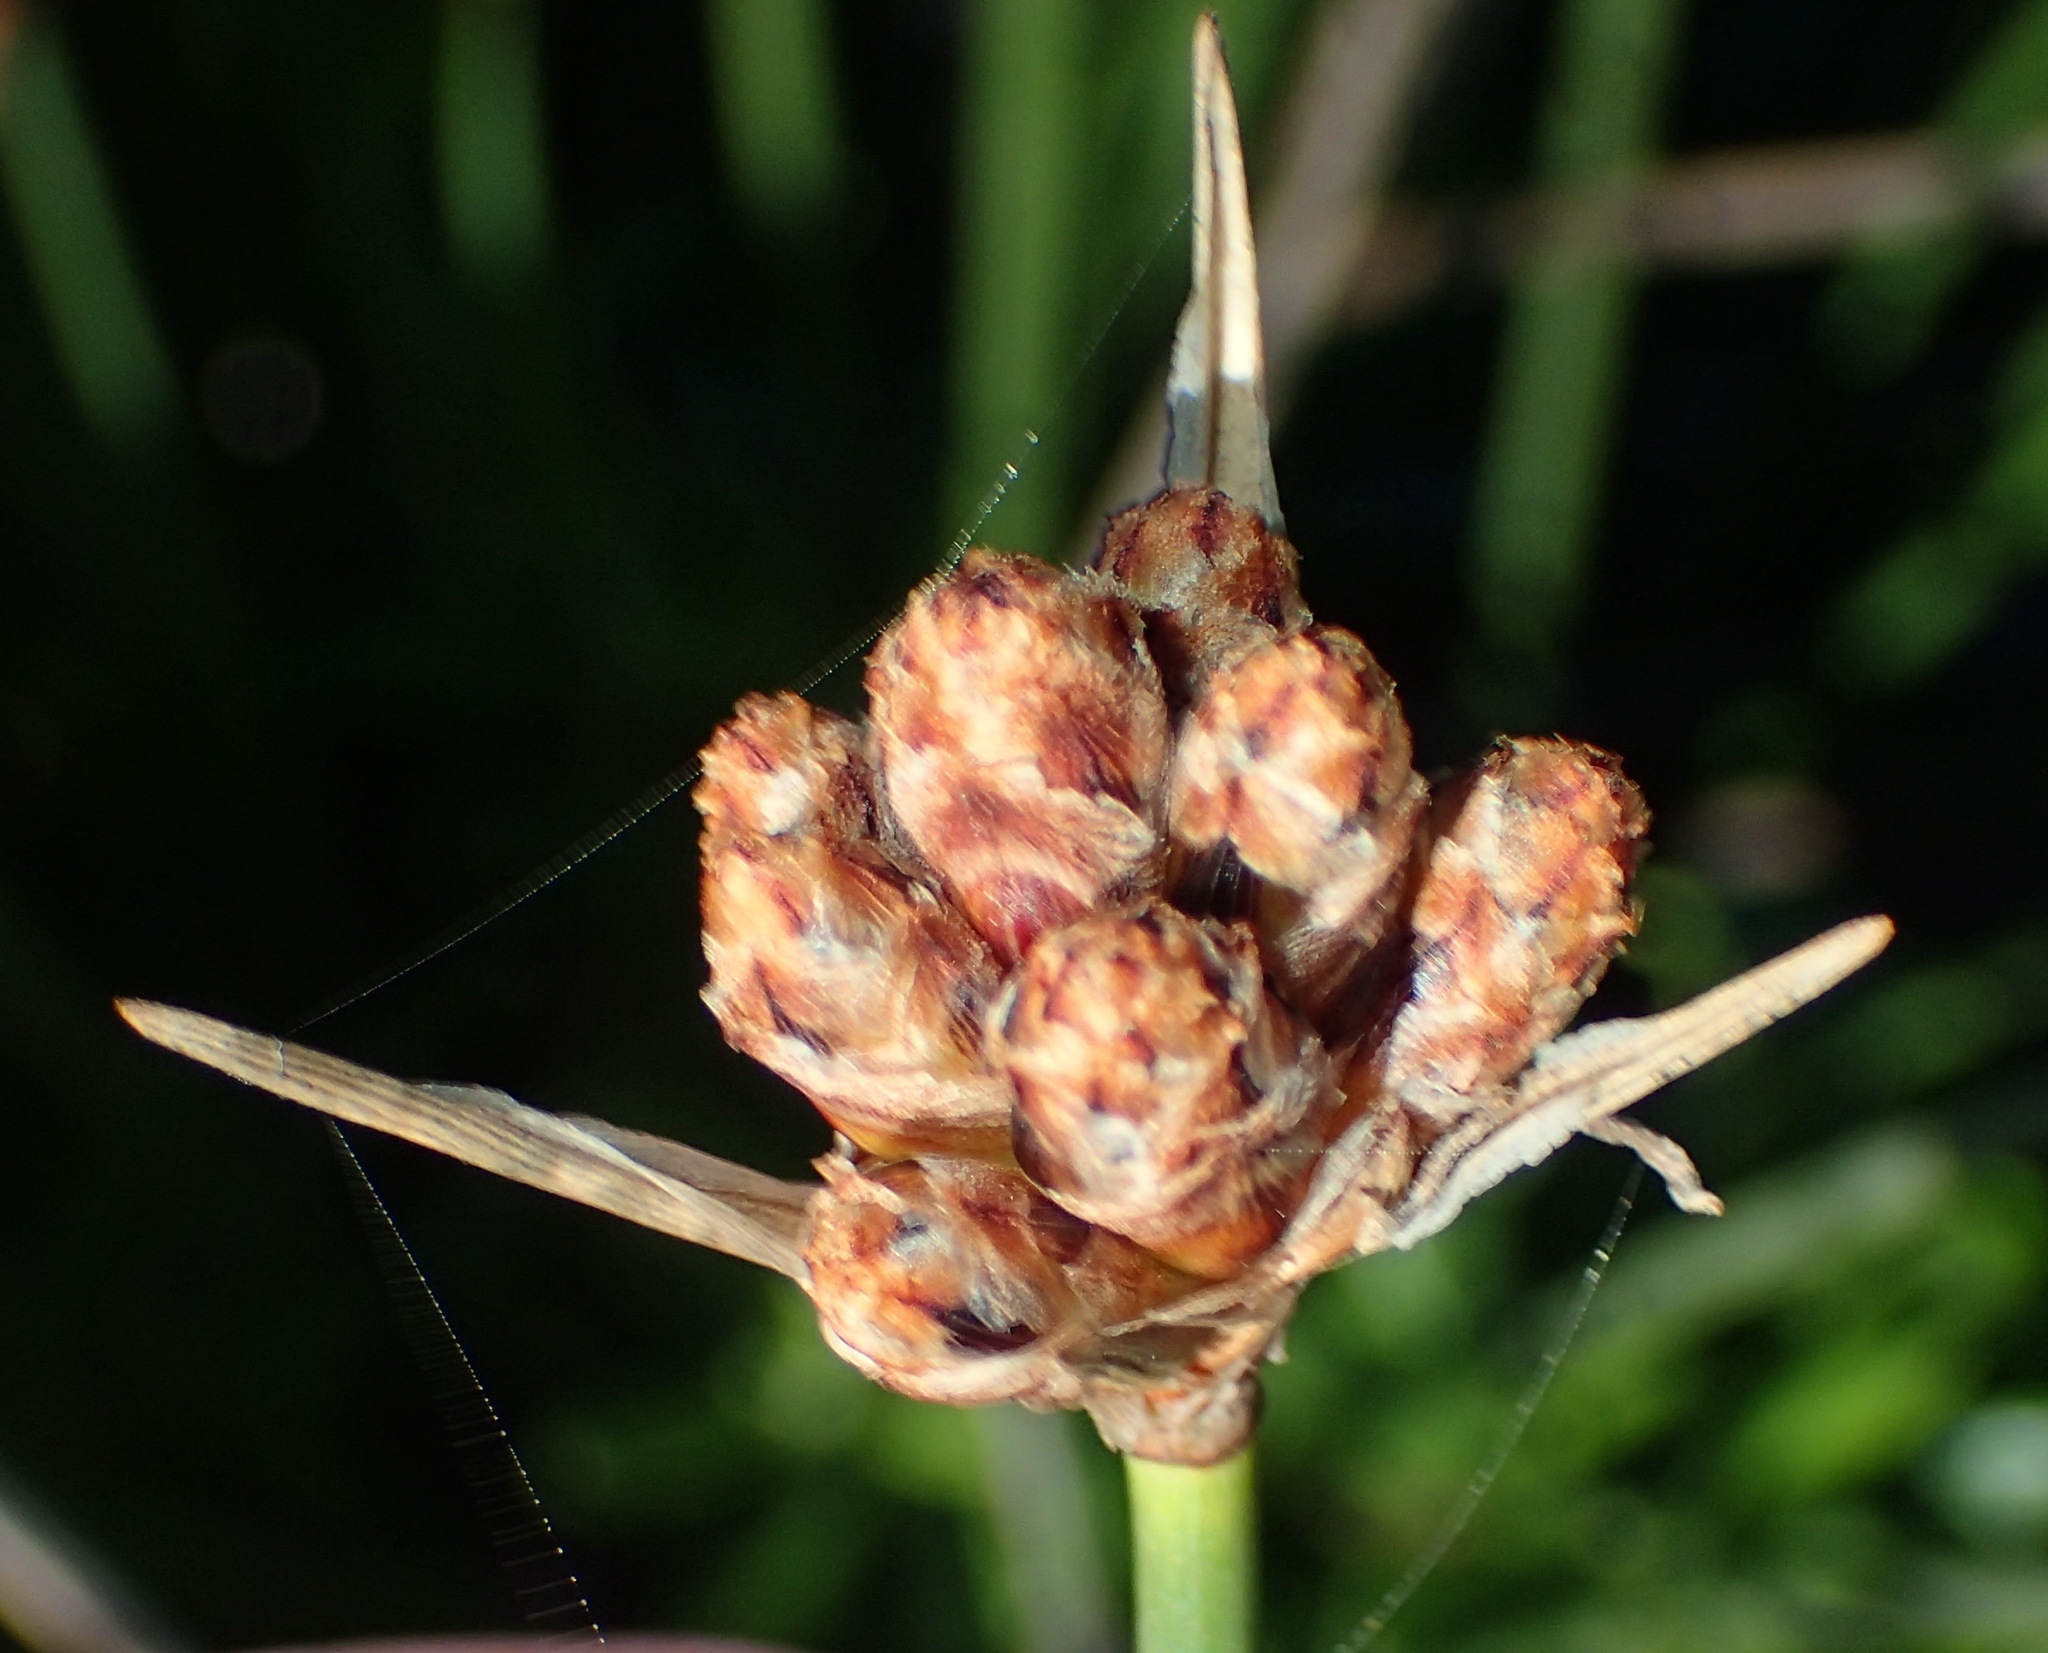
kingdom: Plantae
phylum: Tracheophyta
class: Liliopsida
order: Poales
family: Cyperaceae
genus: Hellmuthia
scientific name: Hellmuthia membranacea
